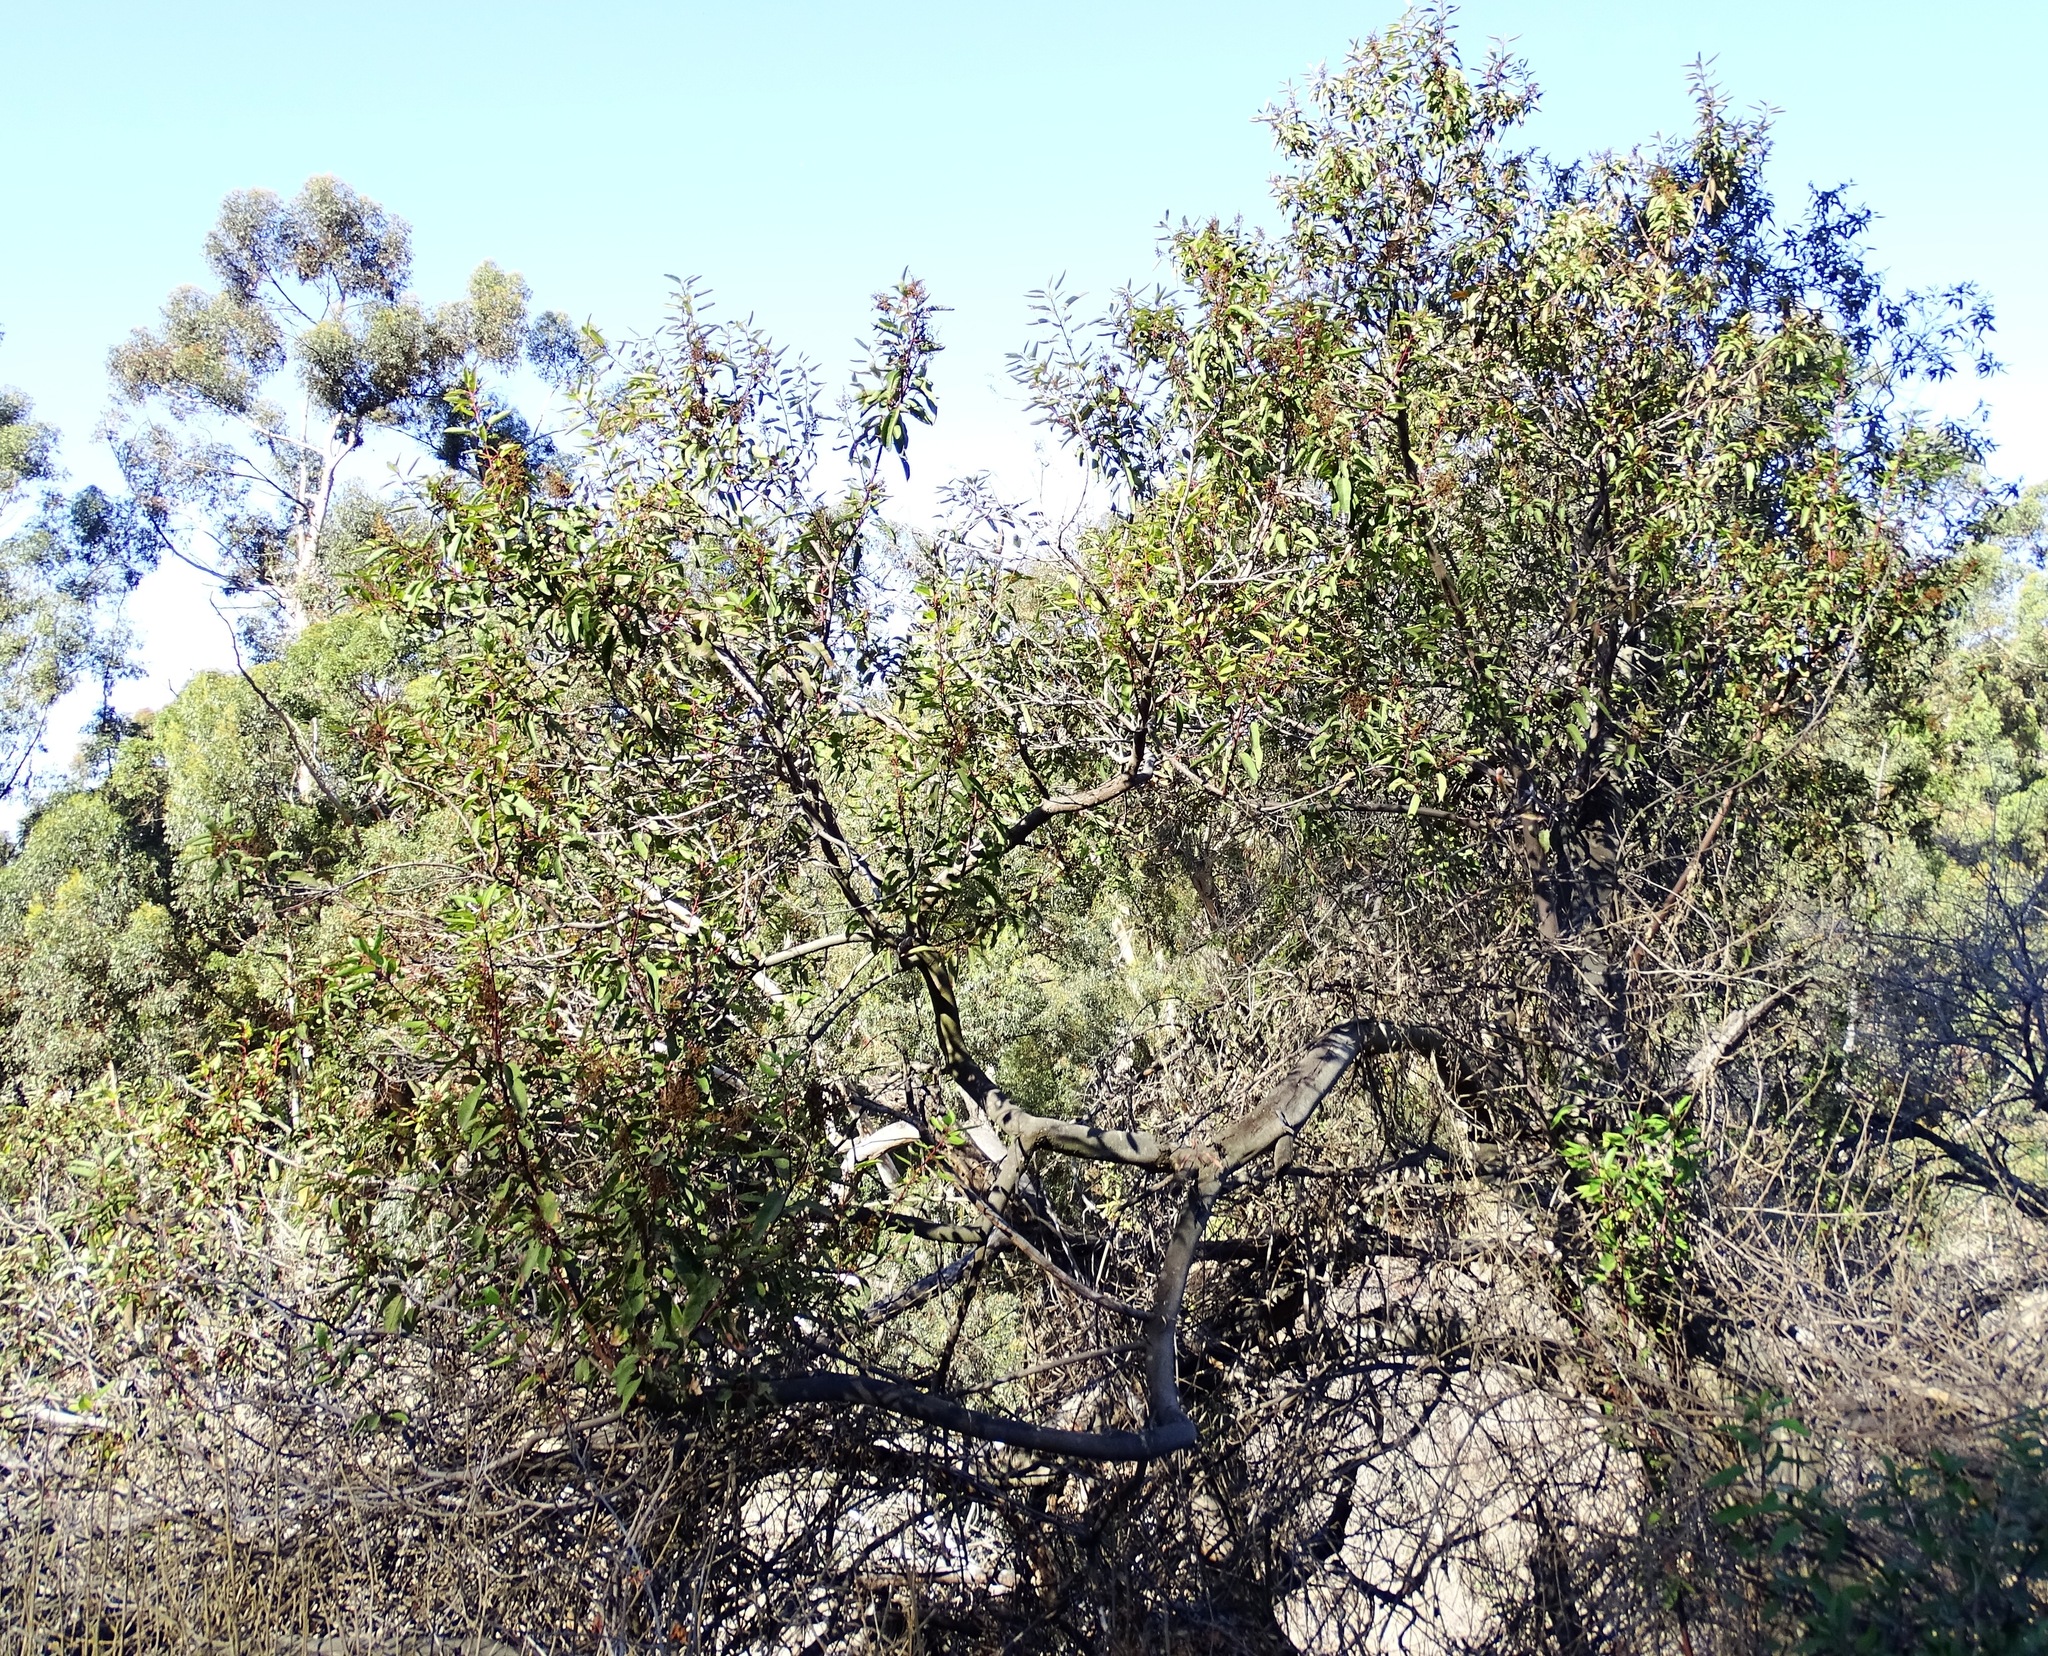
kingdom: Plantae
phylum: Tracheophyta
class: Magnoliopsida
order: Sapindales
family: Anacardiaceae
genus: Malosma
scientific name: Malosma laurina
